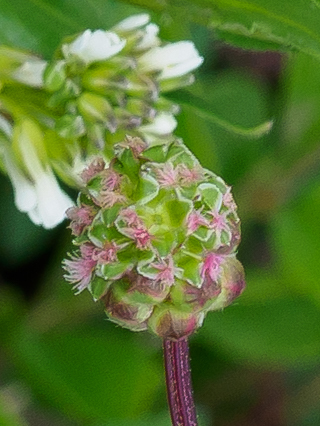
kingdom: Plantae
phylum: Tracheophyta
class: Magnoliopsida
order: Rosales
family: Rosaceae
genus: Poterium
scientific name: Poterium sanguisorba
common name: Salad burnet
